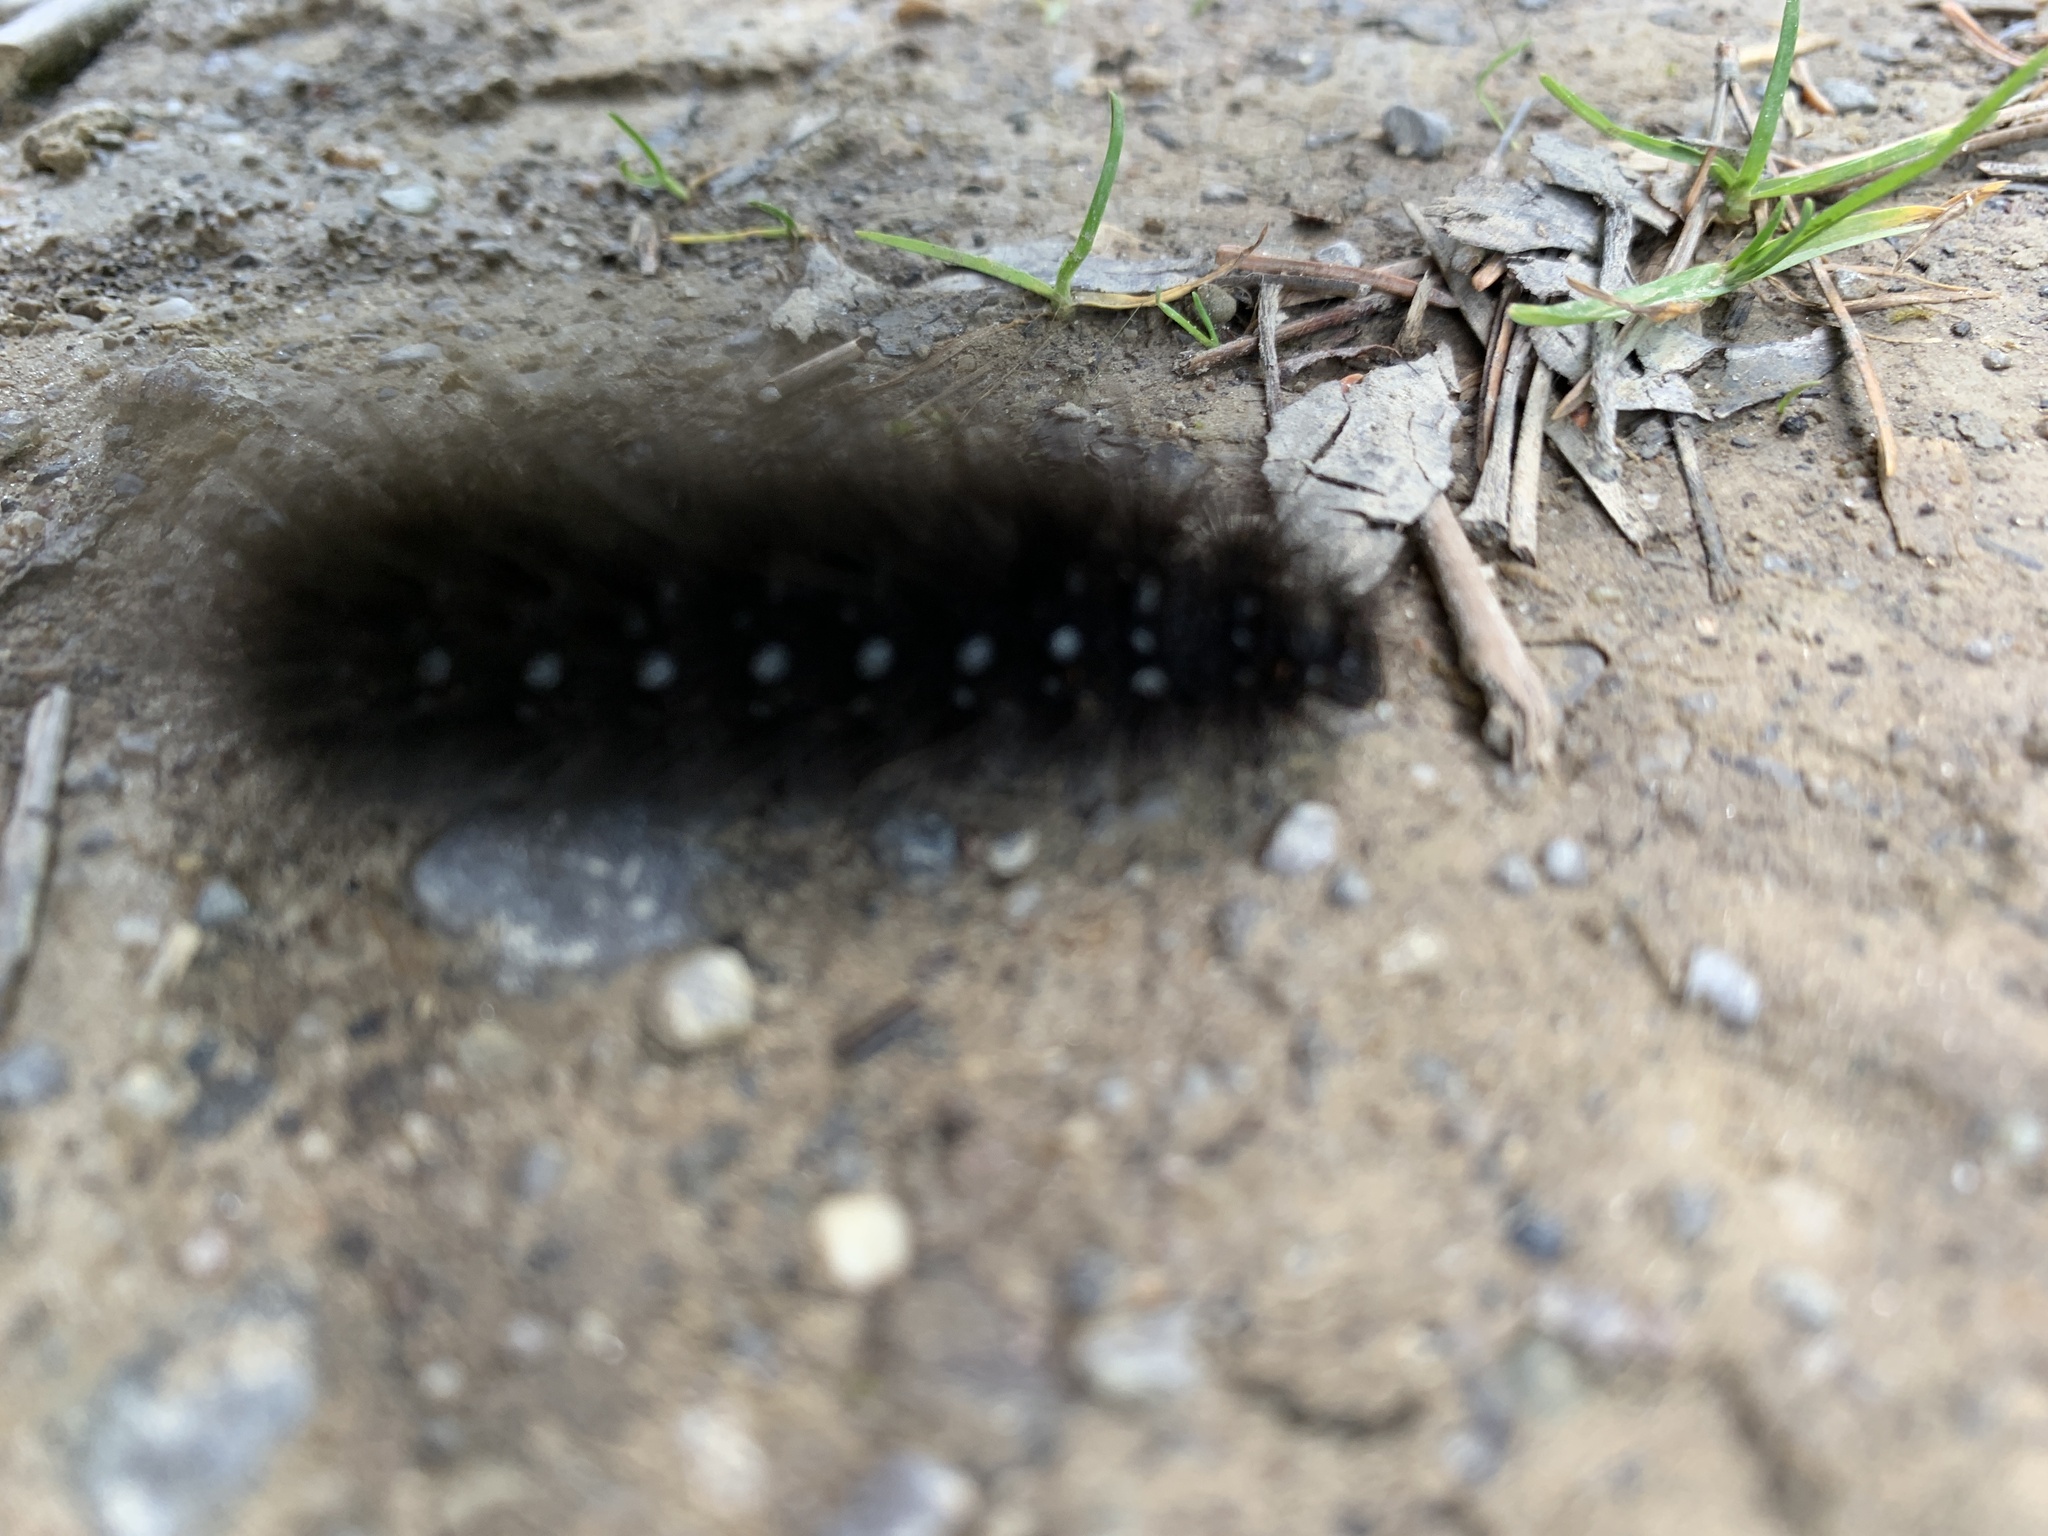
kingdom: Animalia
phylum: Arthropoda
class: Insecta
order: Lepidoptera
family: Erebidae
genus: Arctia
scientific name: Arctia parthenos
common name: St. lawrence tiger moth
